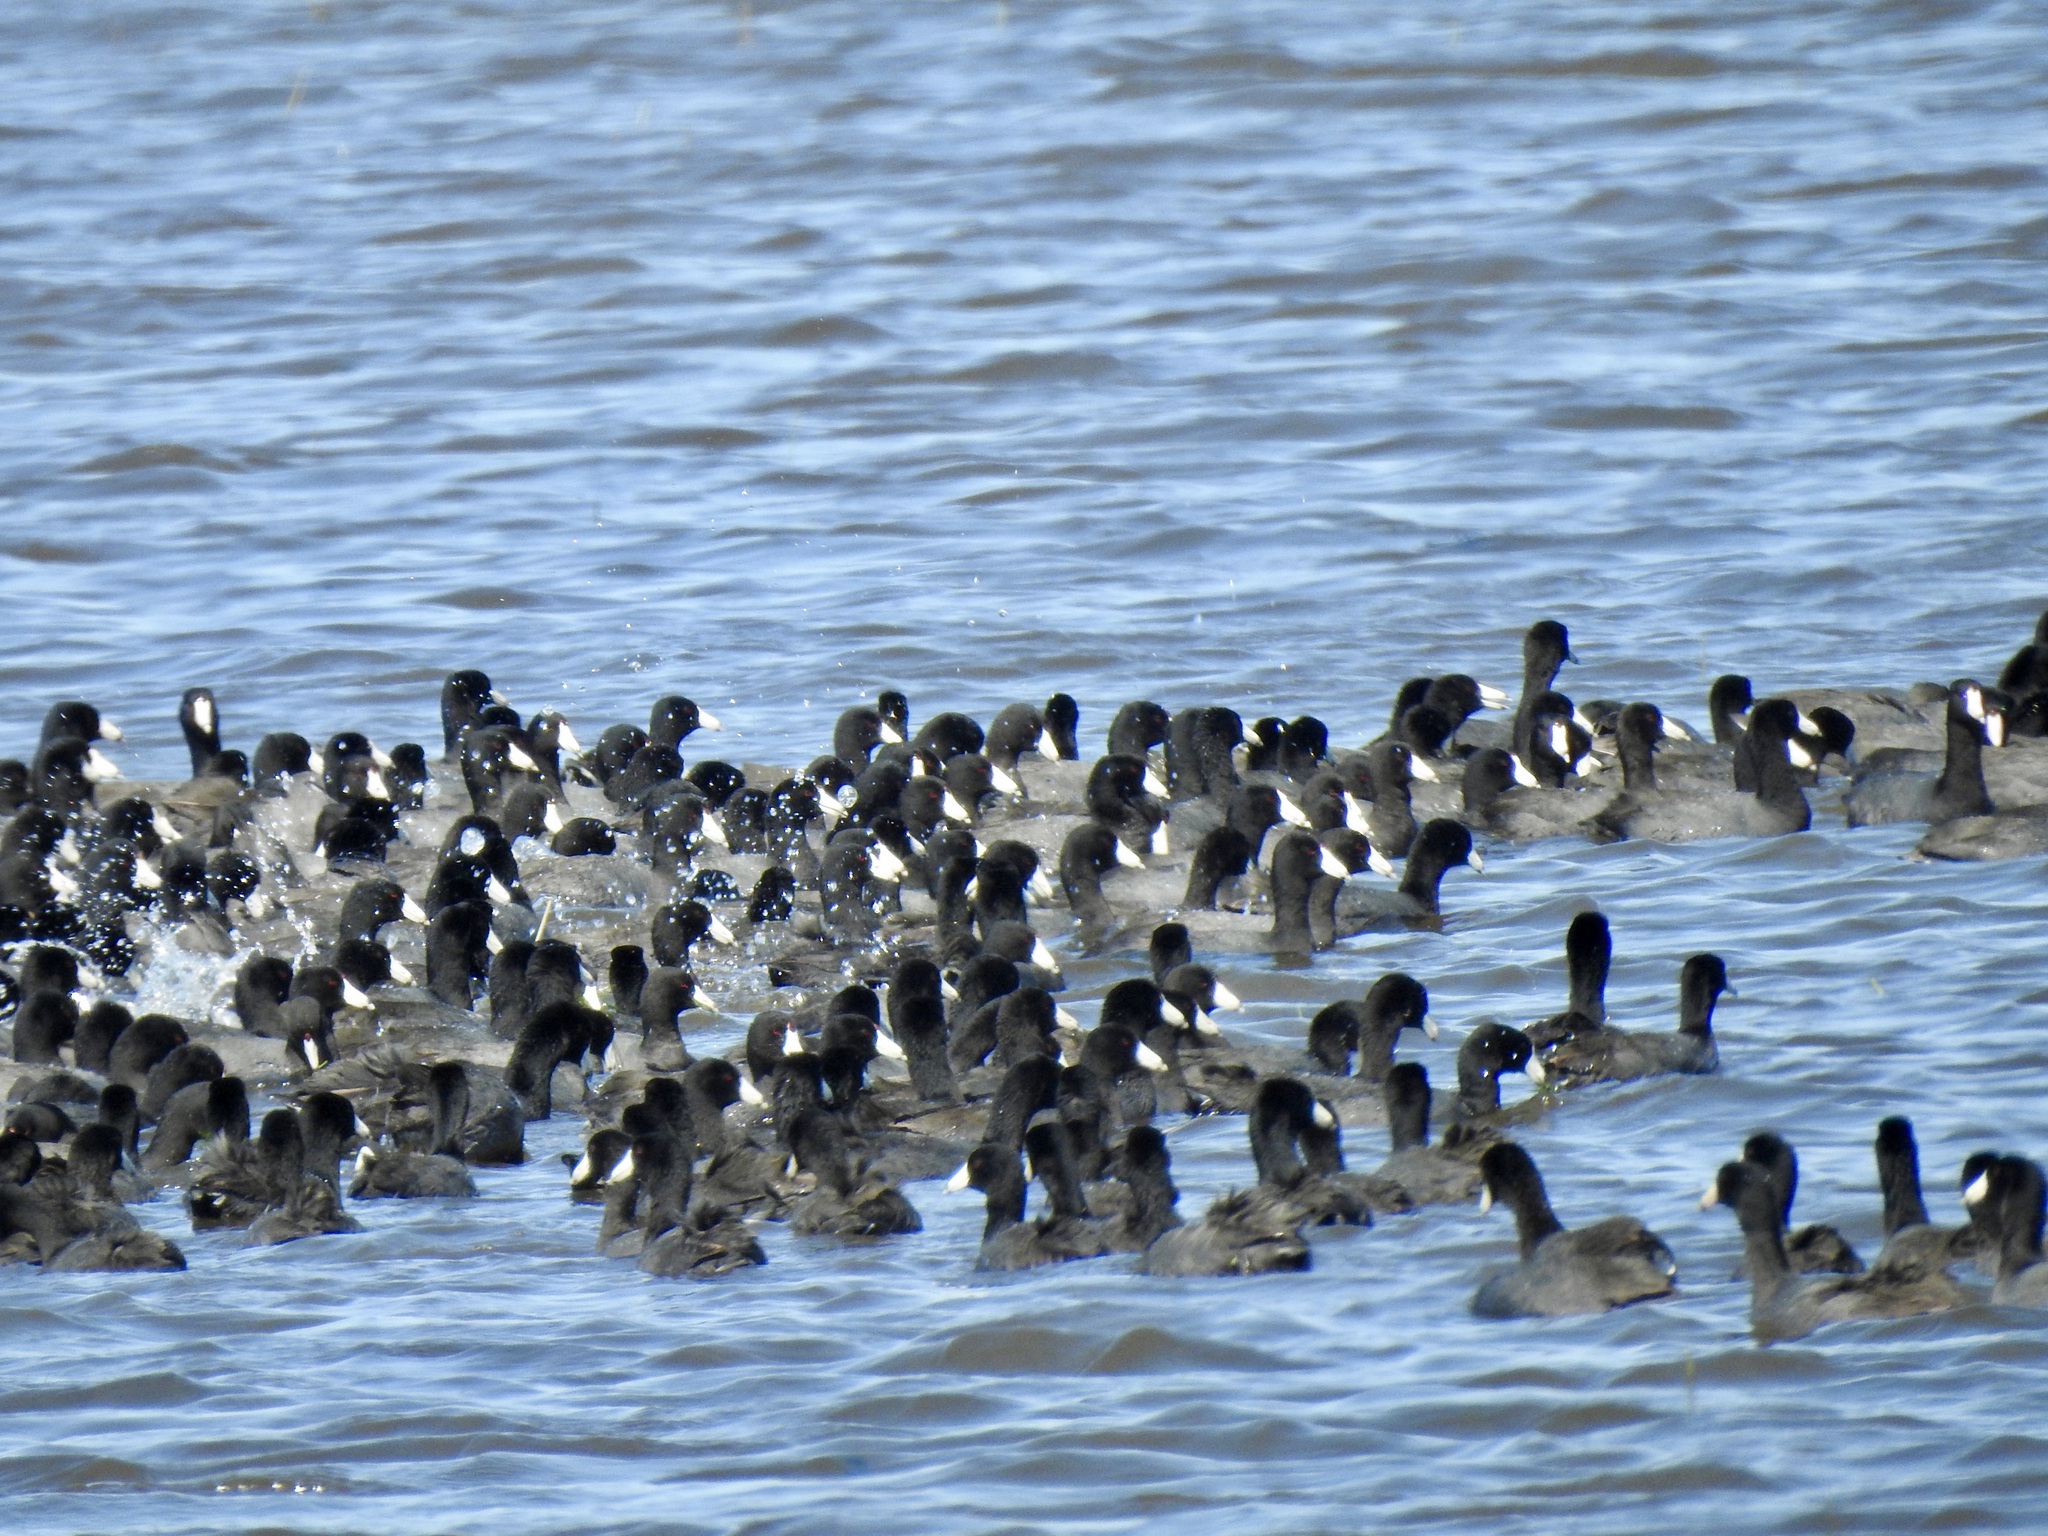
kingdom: Animalia
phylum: Chordata
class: Aves
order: Gruiformes
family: Rallidae
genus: Fulica
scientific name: Fulica americana
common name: American coot
